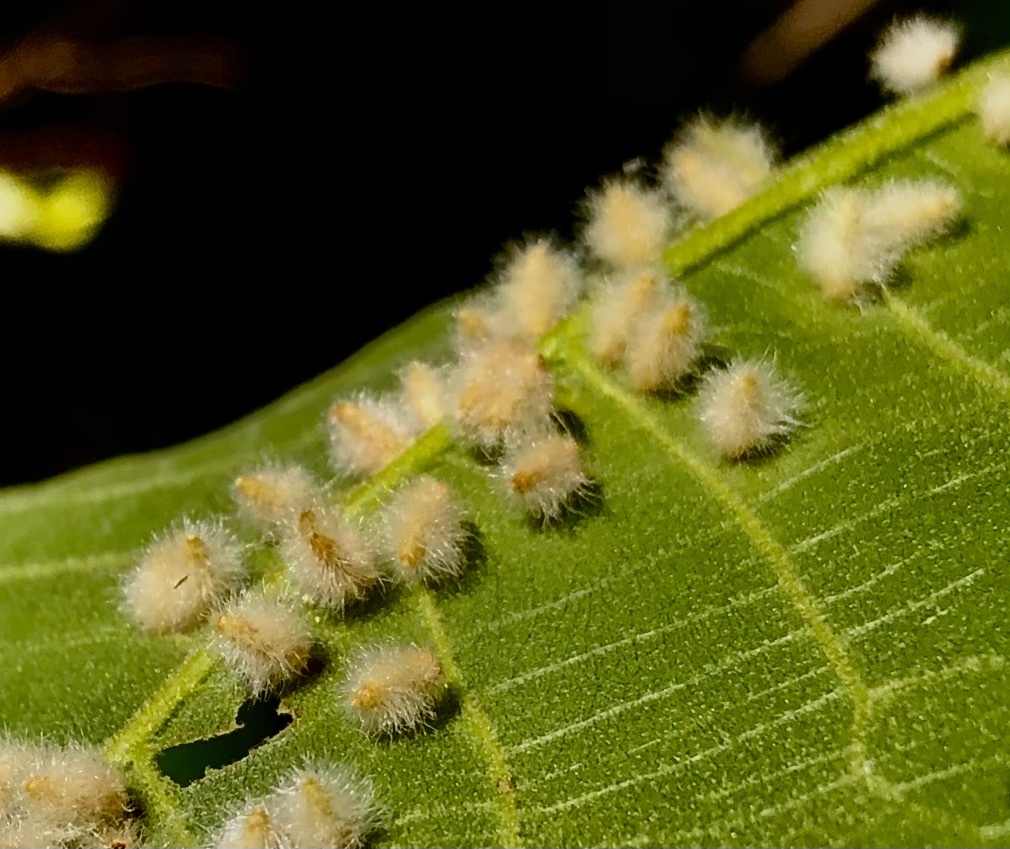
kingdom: Animalia
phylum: Arthropoda
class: Insecta
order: Diptera
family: Cecidomyiidae
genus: Caryomyia
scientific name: Caryomyia albipilosa
